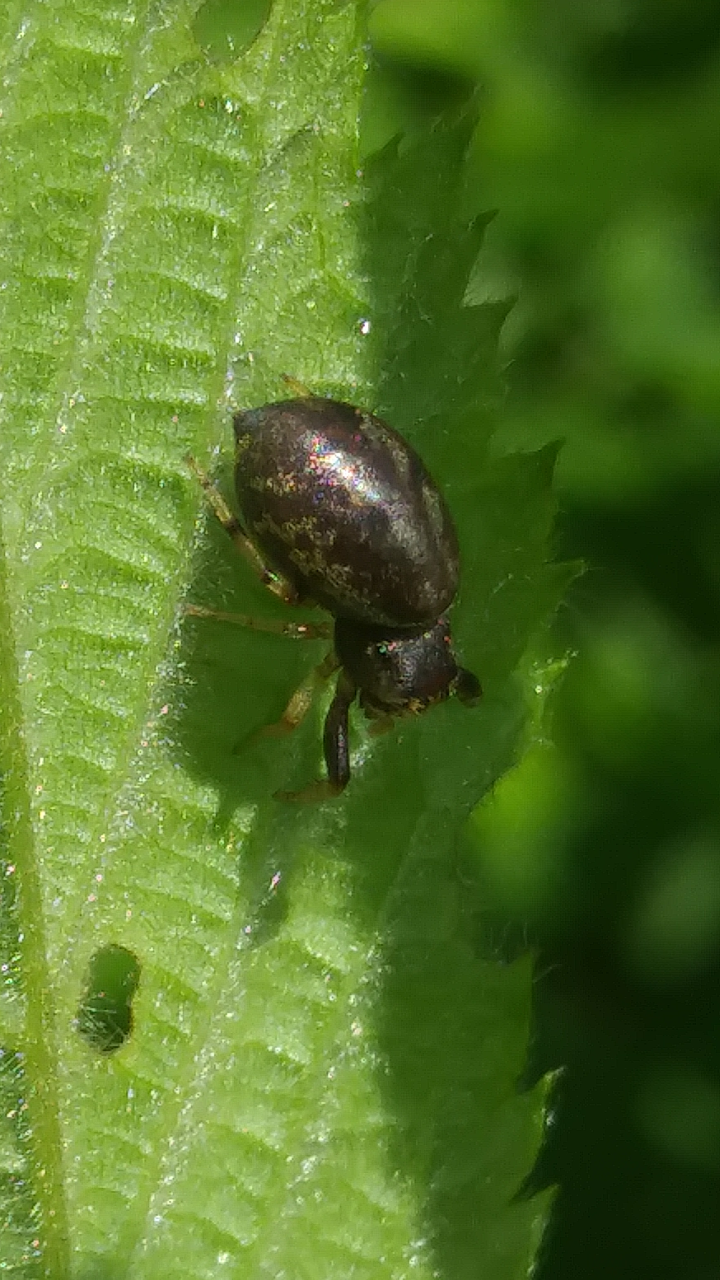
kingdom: Animalia
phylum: Arthropoda
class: Arachnida
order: Araneae
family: Salticidae
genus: Zygoballus
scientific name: Zygoballus rufipes
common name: Jumping spiders
